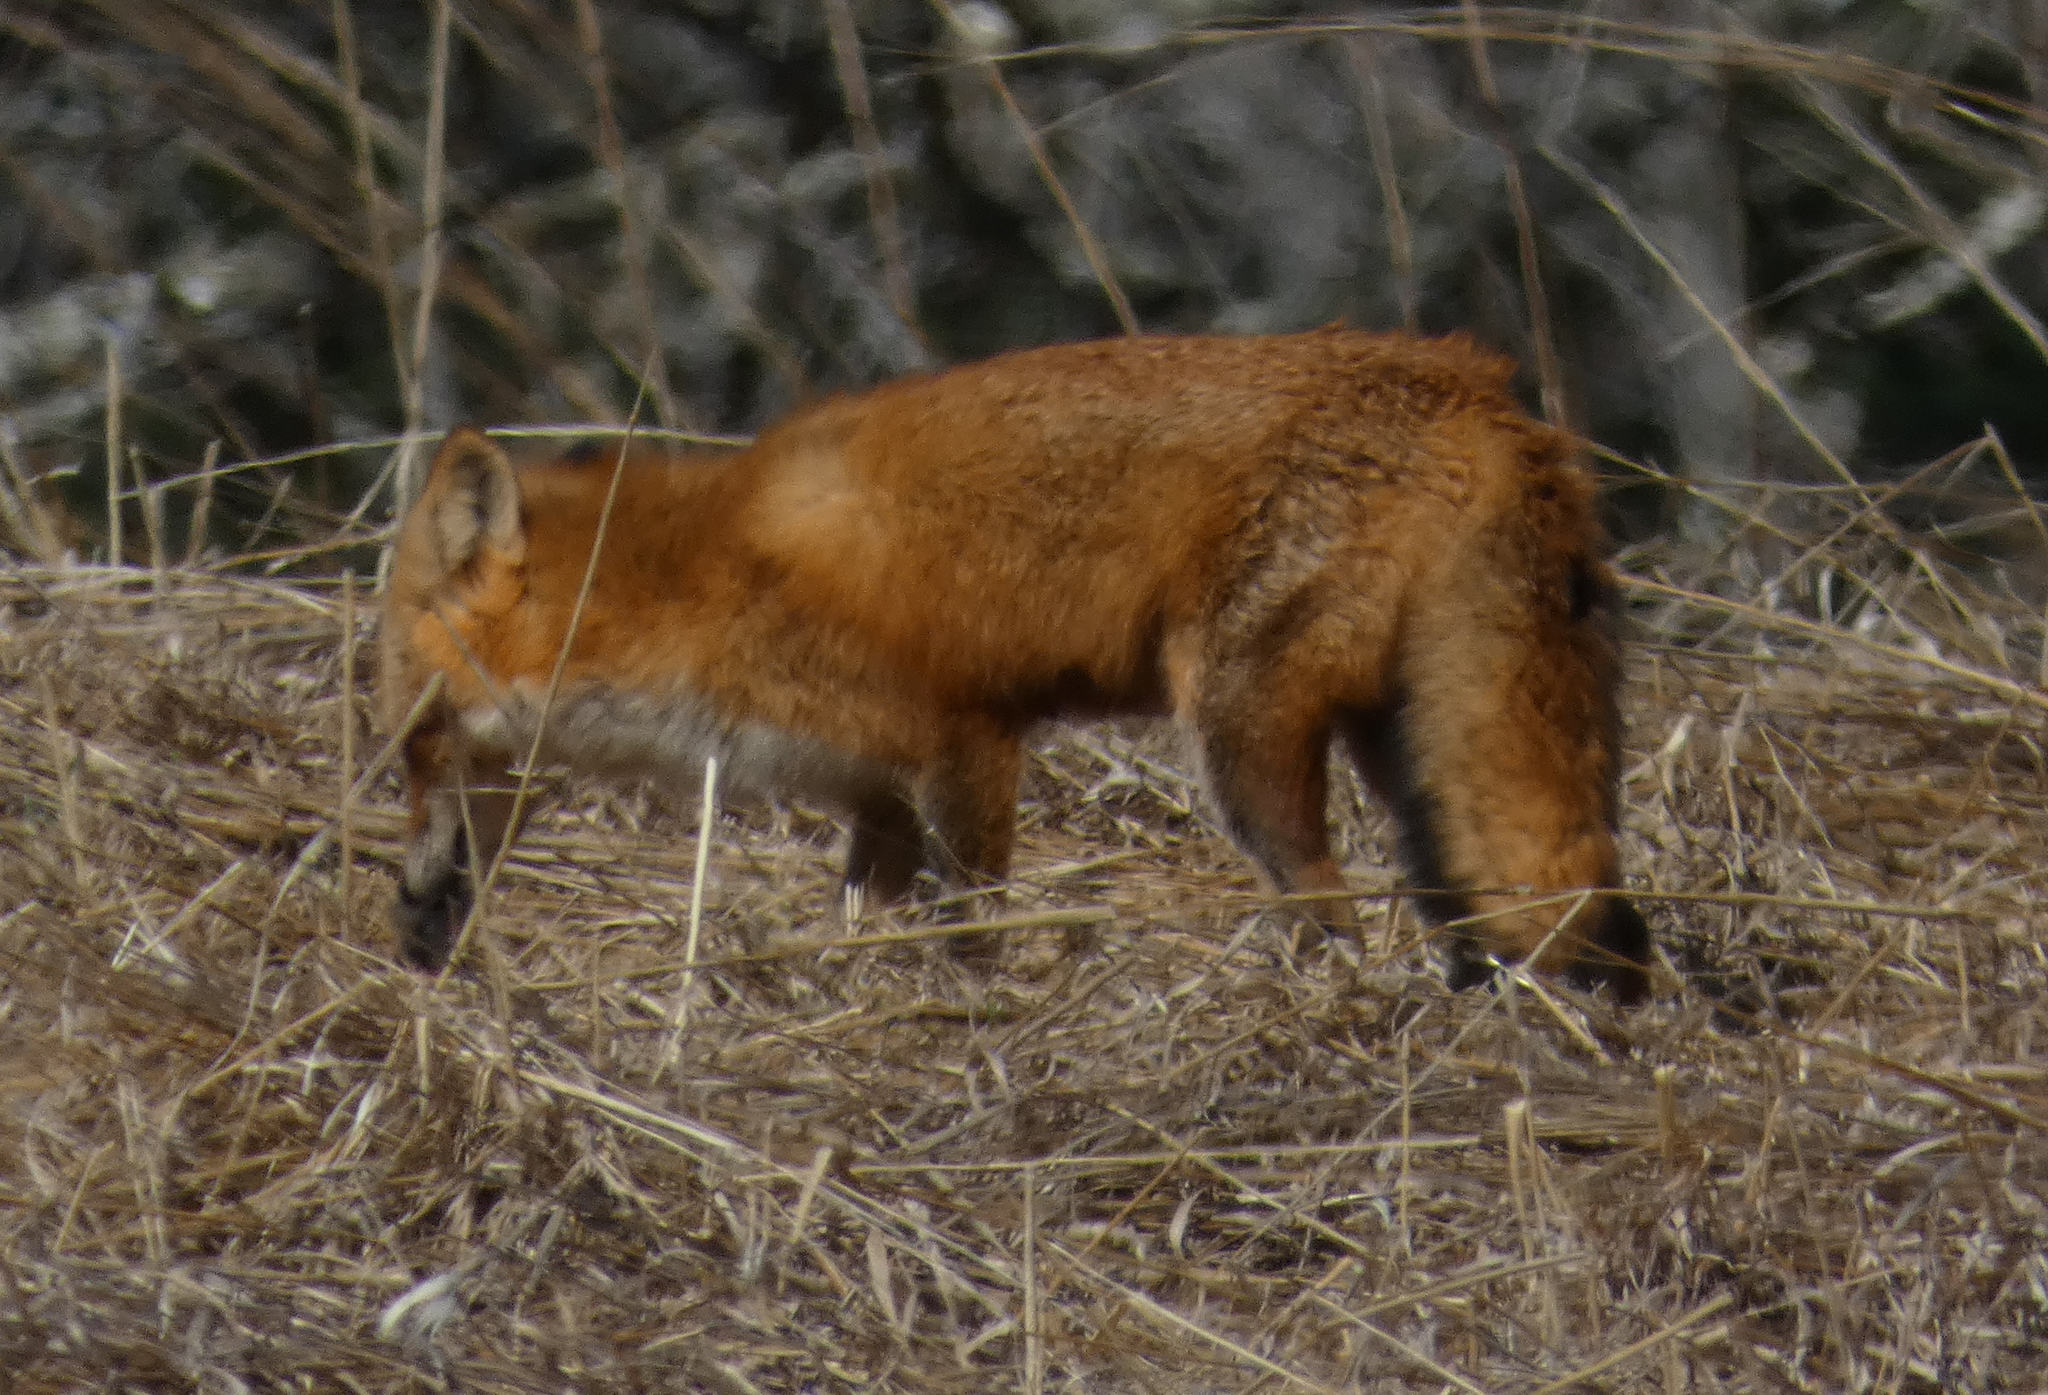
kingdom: Animalia
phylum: Chordata
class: Mammalia
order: Carnivora
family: Canidae
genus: Vulpes
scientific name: Vulpes vulpes
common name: Red fox
